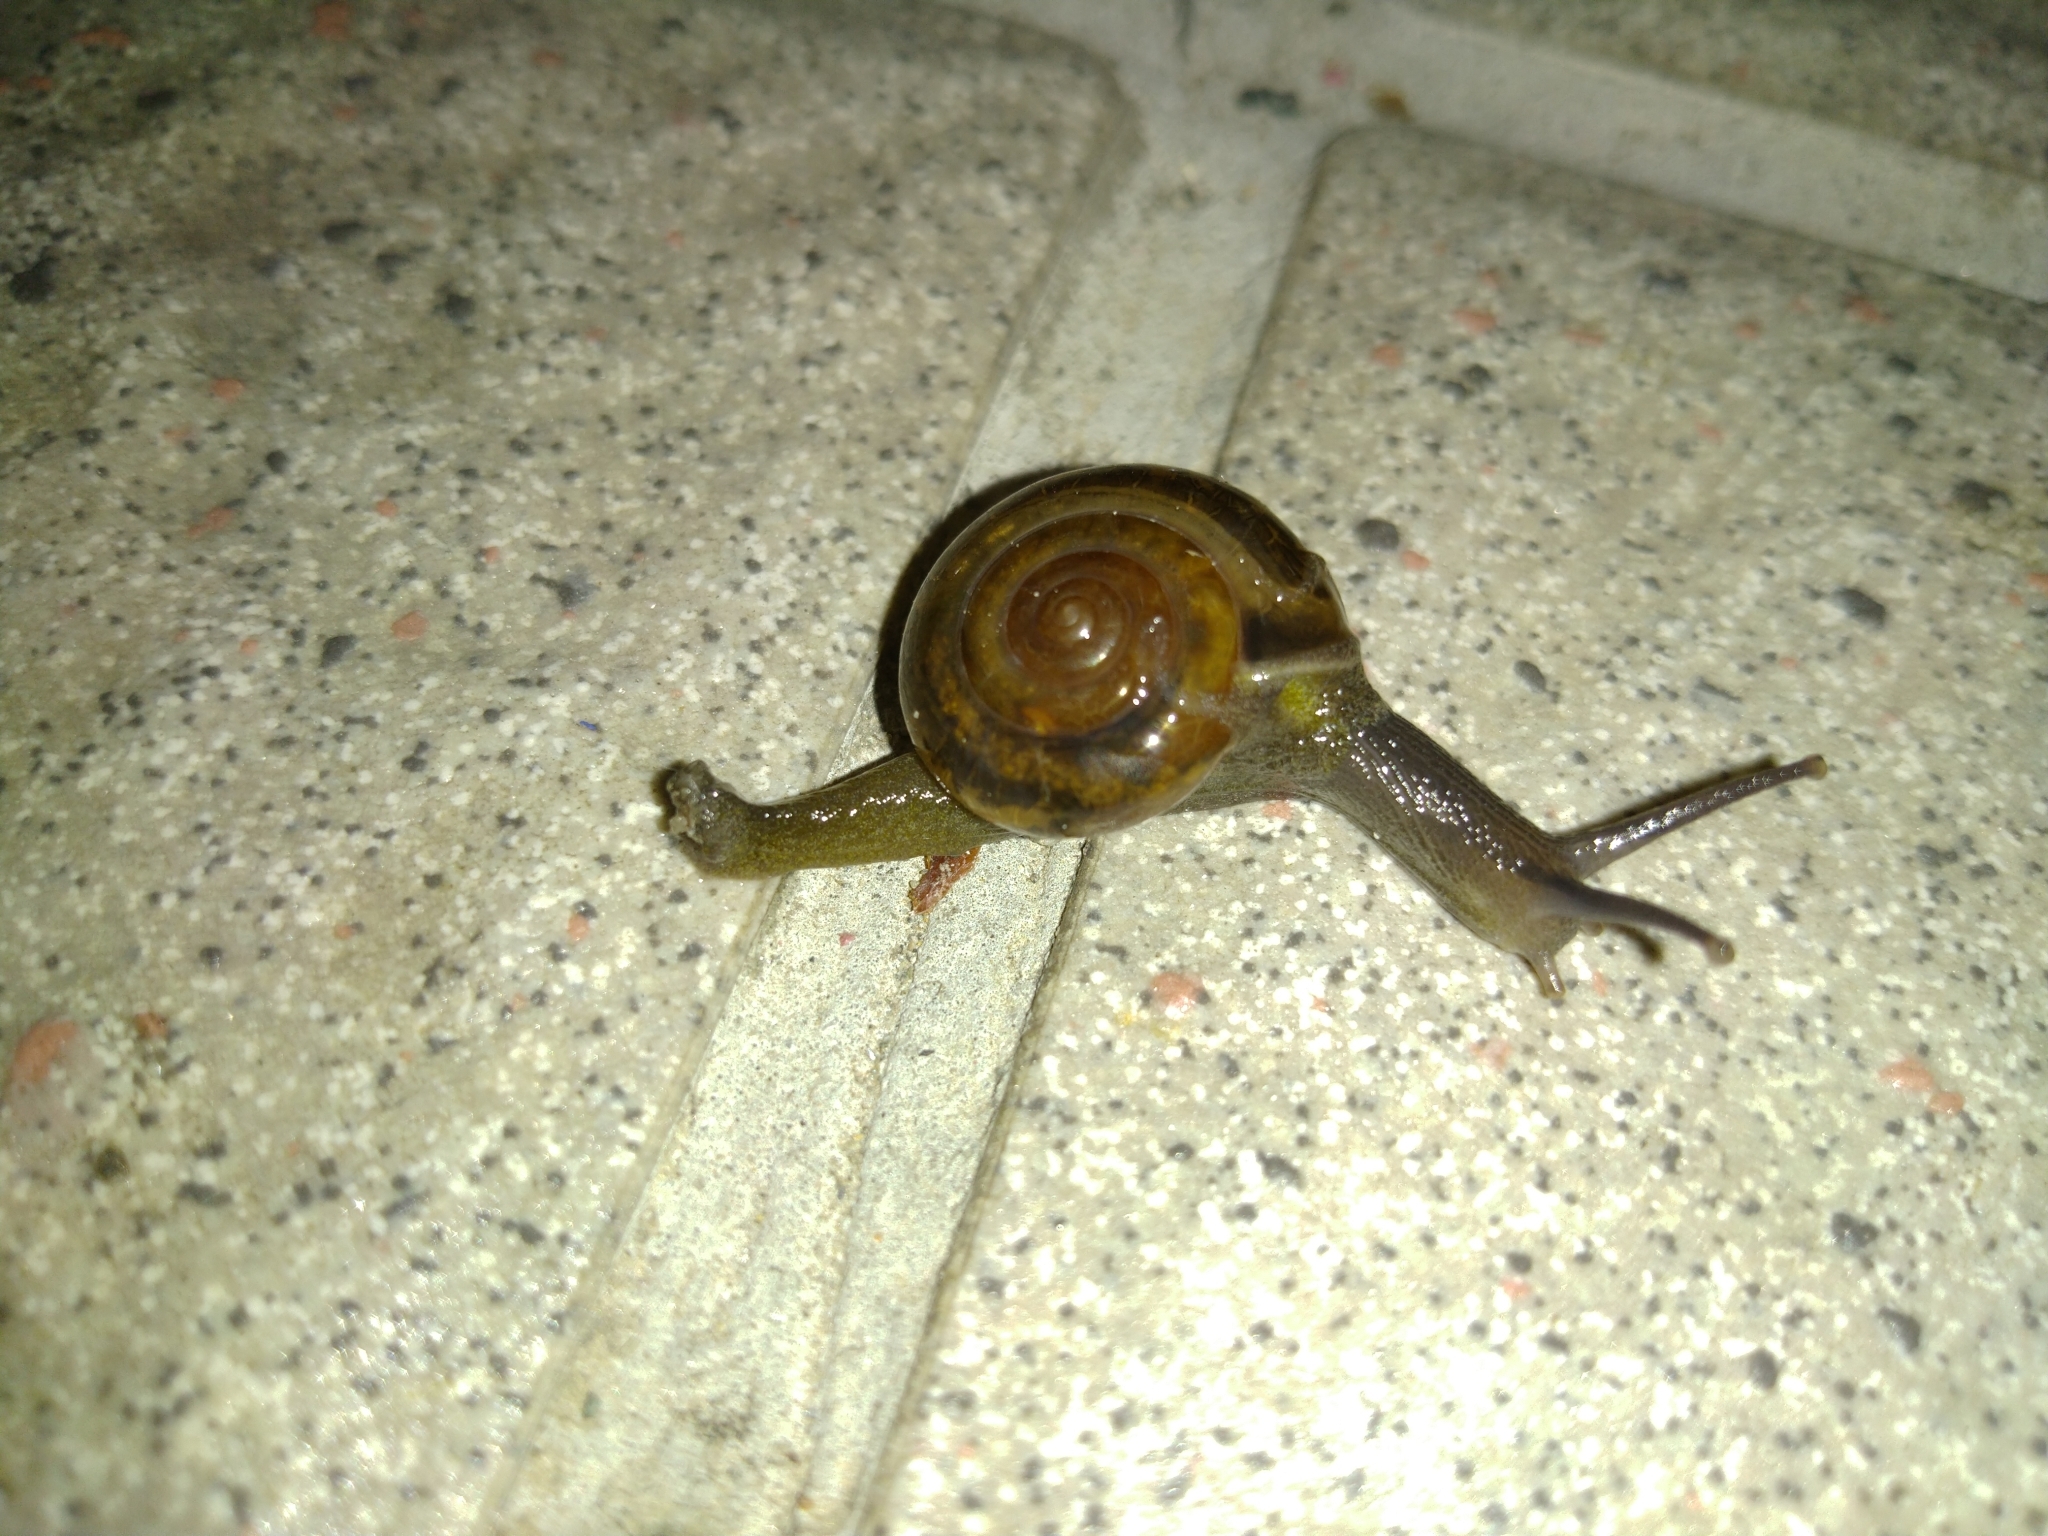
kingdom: Animalia
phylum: Mollusca
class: Gastropoda
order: Stylommatophora
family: Ariophantidae
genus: Macrochlamys
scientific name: Macrochlamys hippocastaneum
